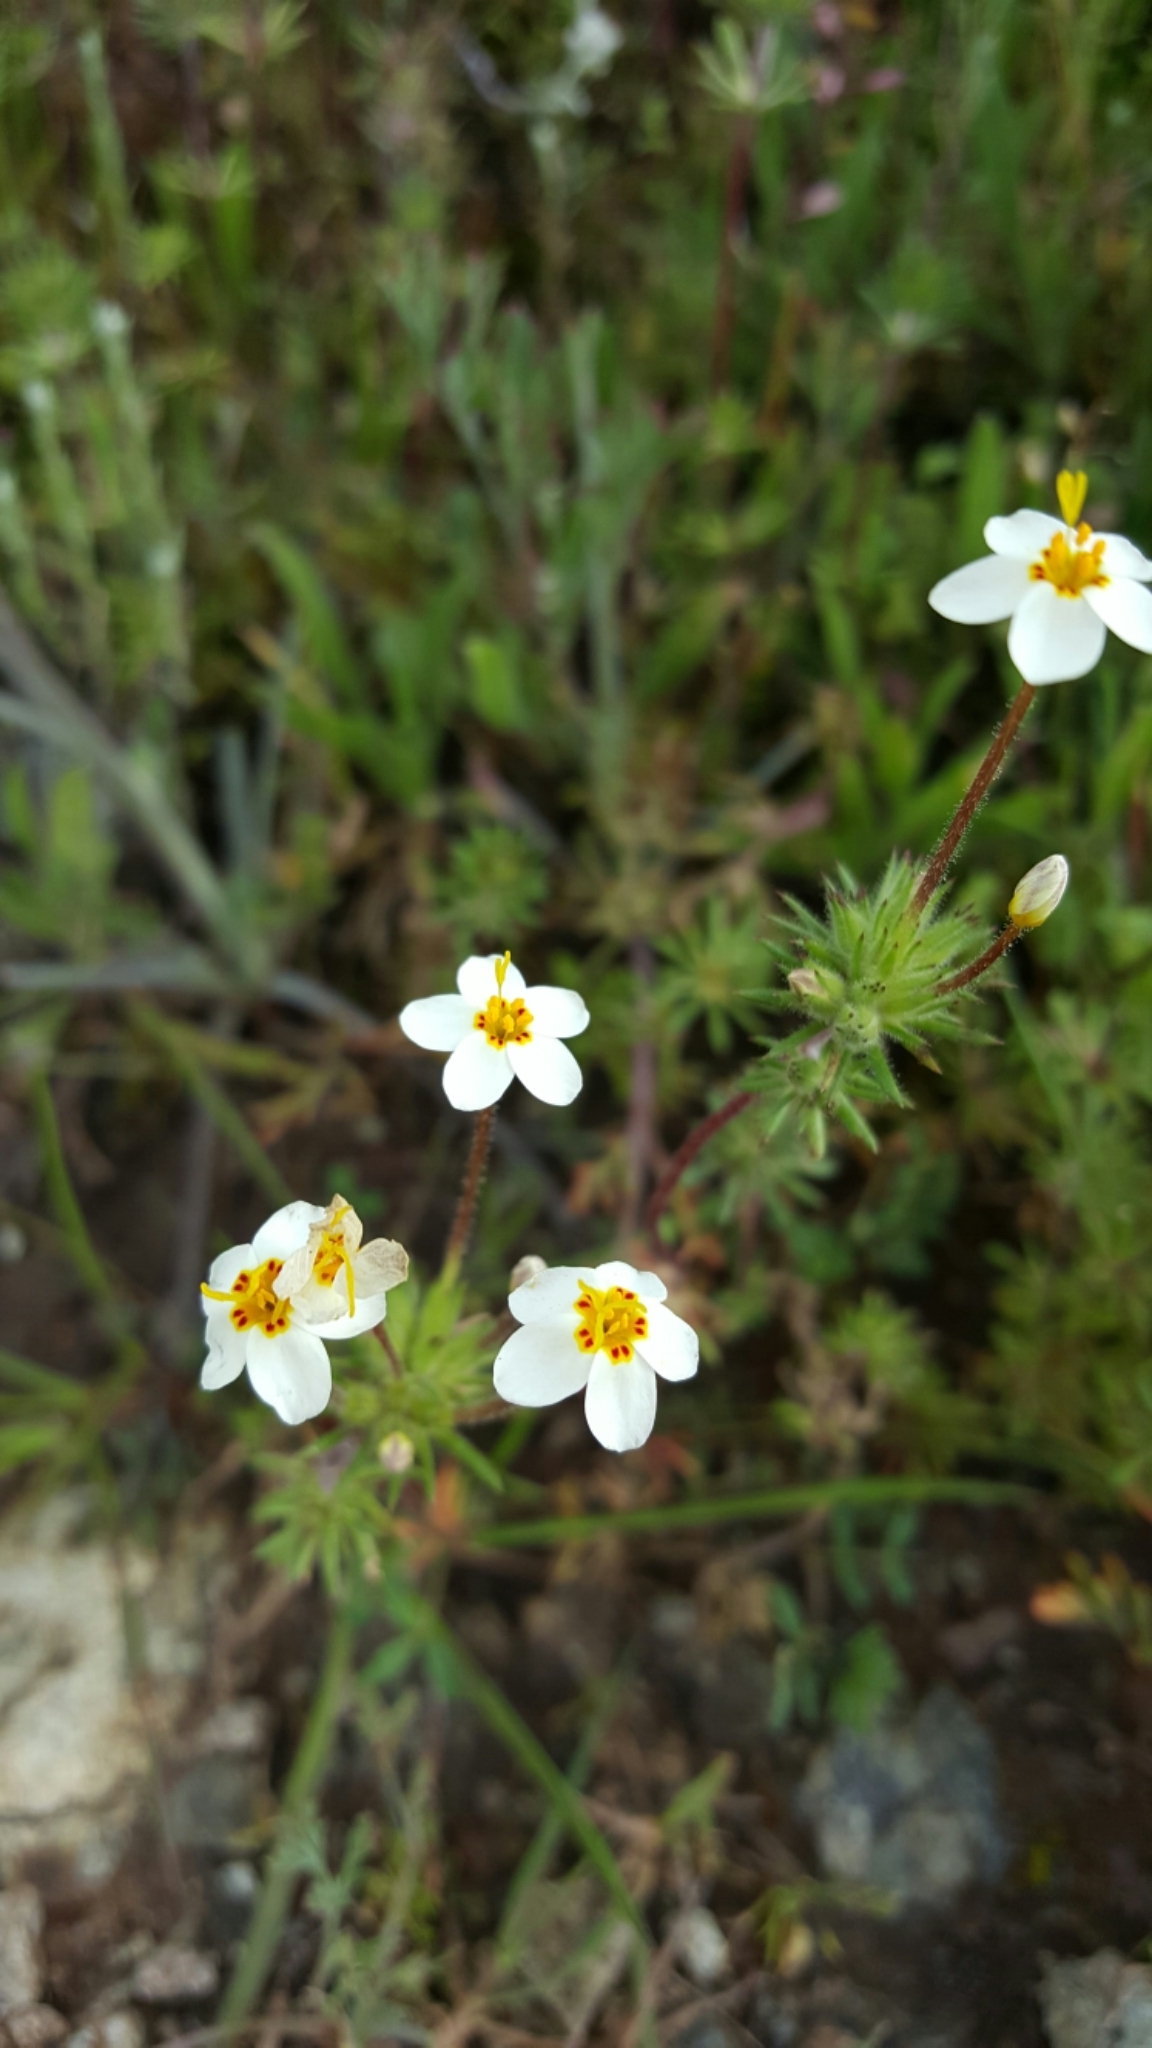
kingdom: Plantae
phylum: Tracheophyta
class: Magnoliopsida
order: Ericales
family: Polemoniaceae
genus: Leptosiphon
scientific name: Leptosiphon parviflorus
